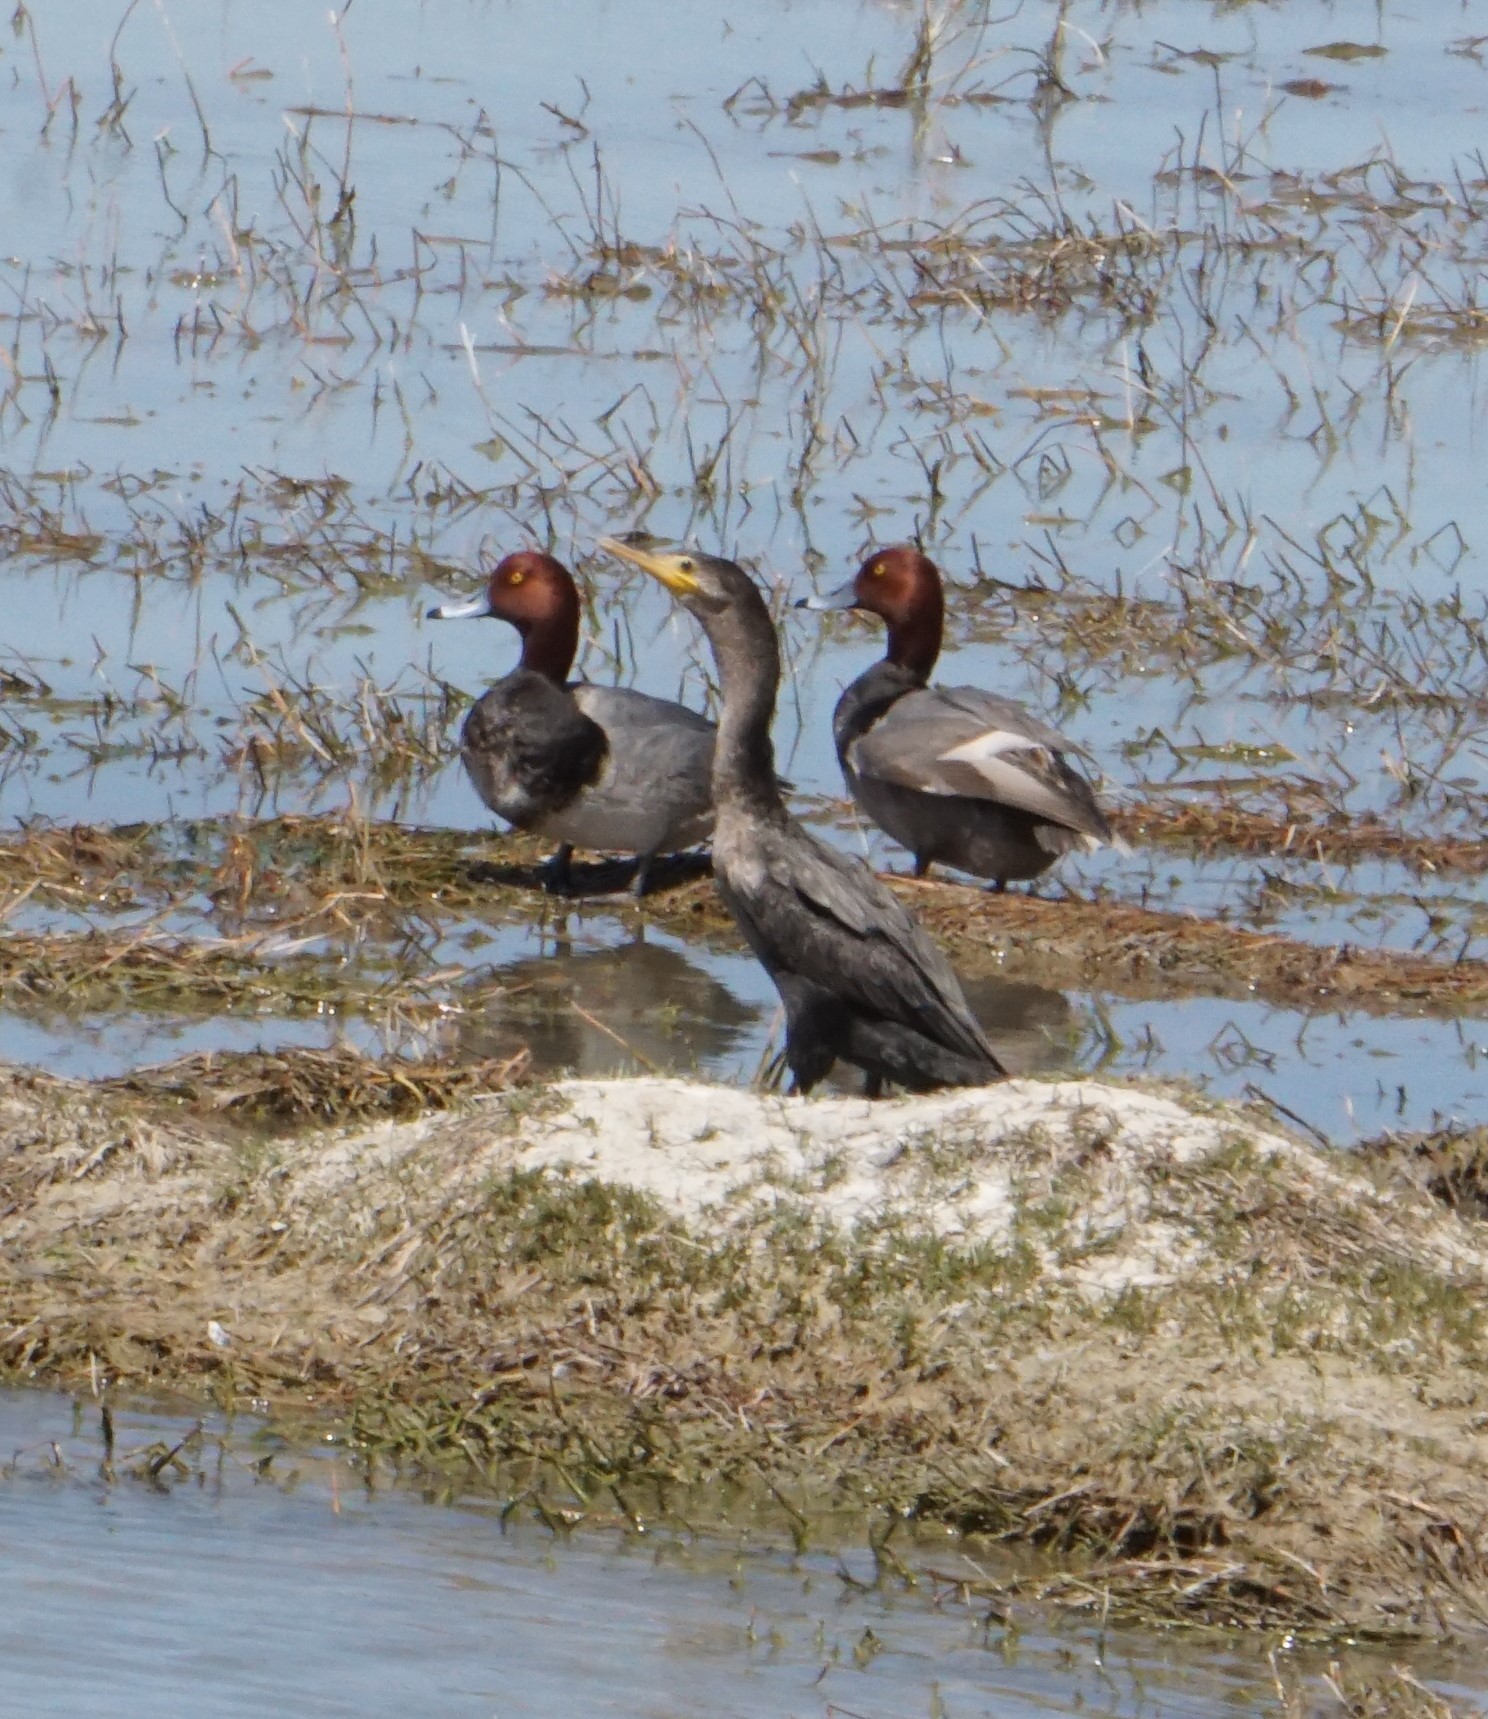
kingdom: Animalia
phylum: Chordata
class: Aves
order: Suliformes
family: Phalacrocoracidae
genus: Phalacrocorax
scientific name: Phalacrocorax auritus
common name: Double-crested cormorant
